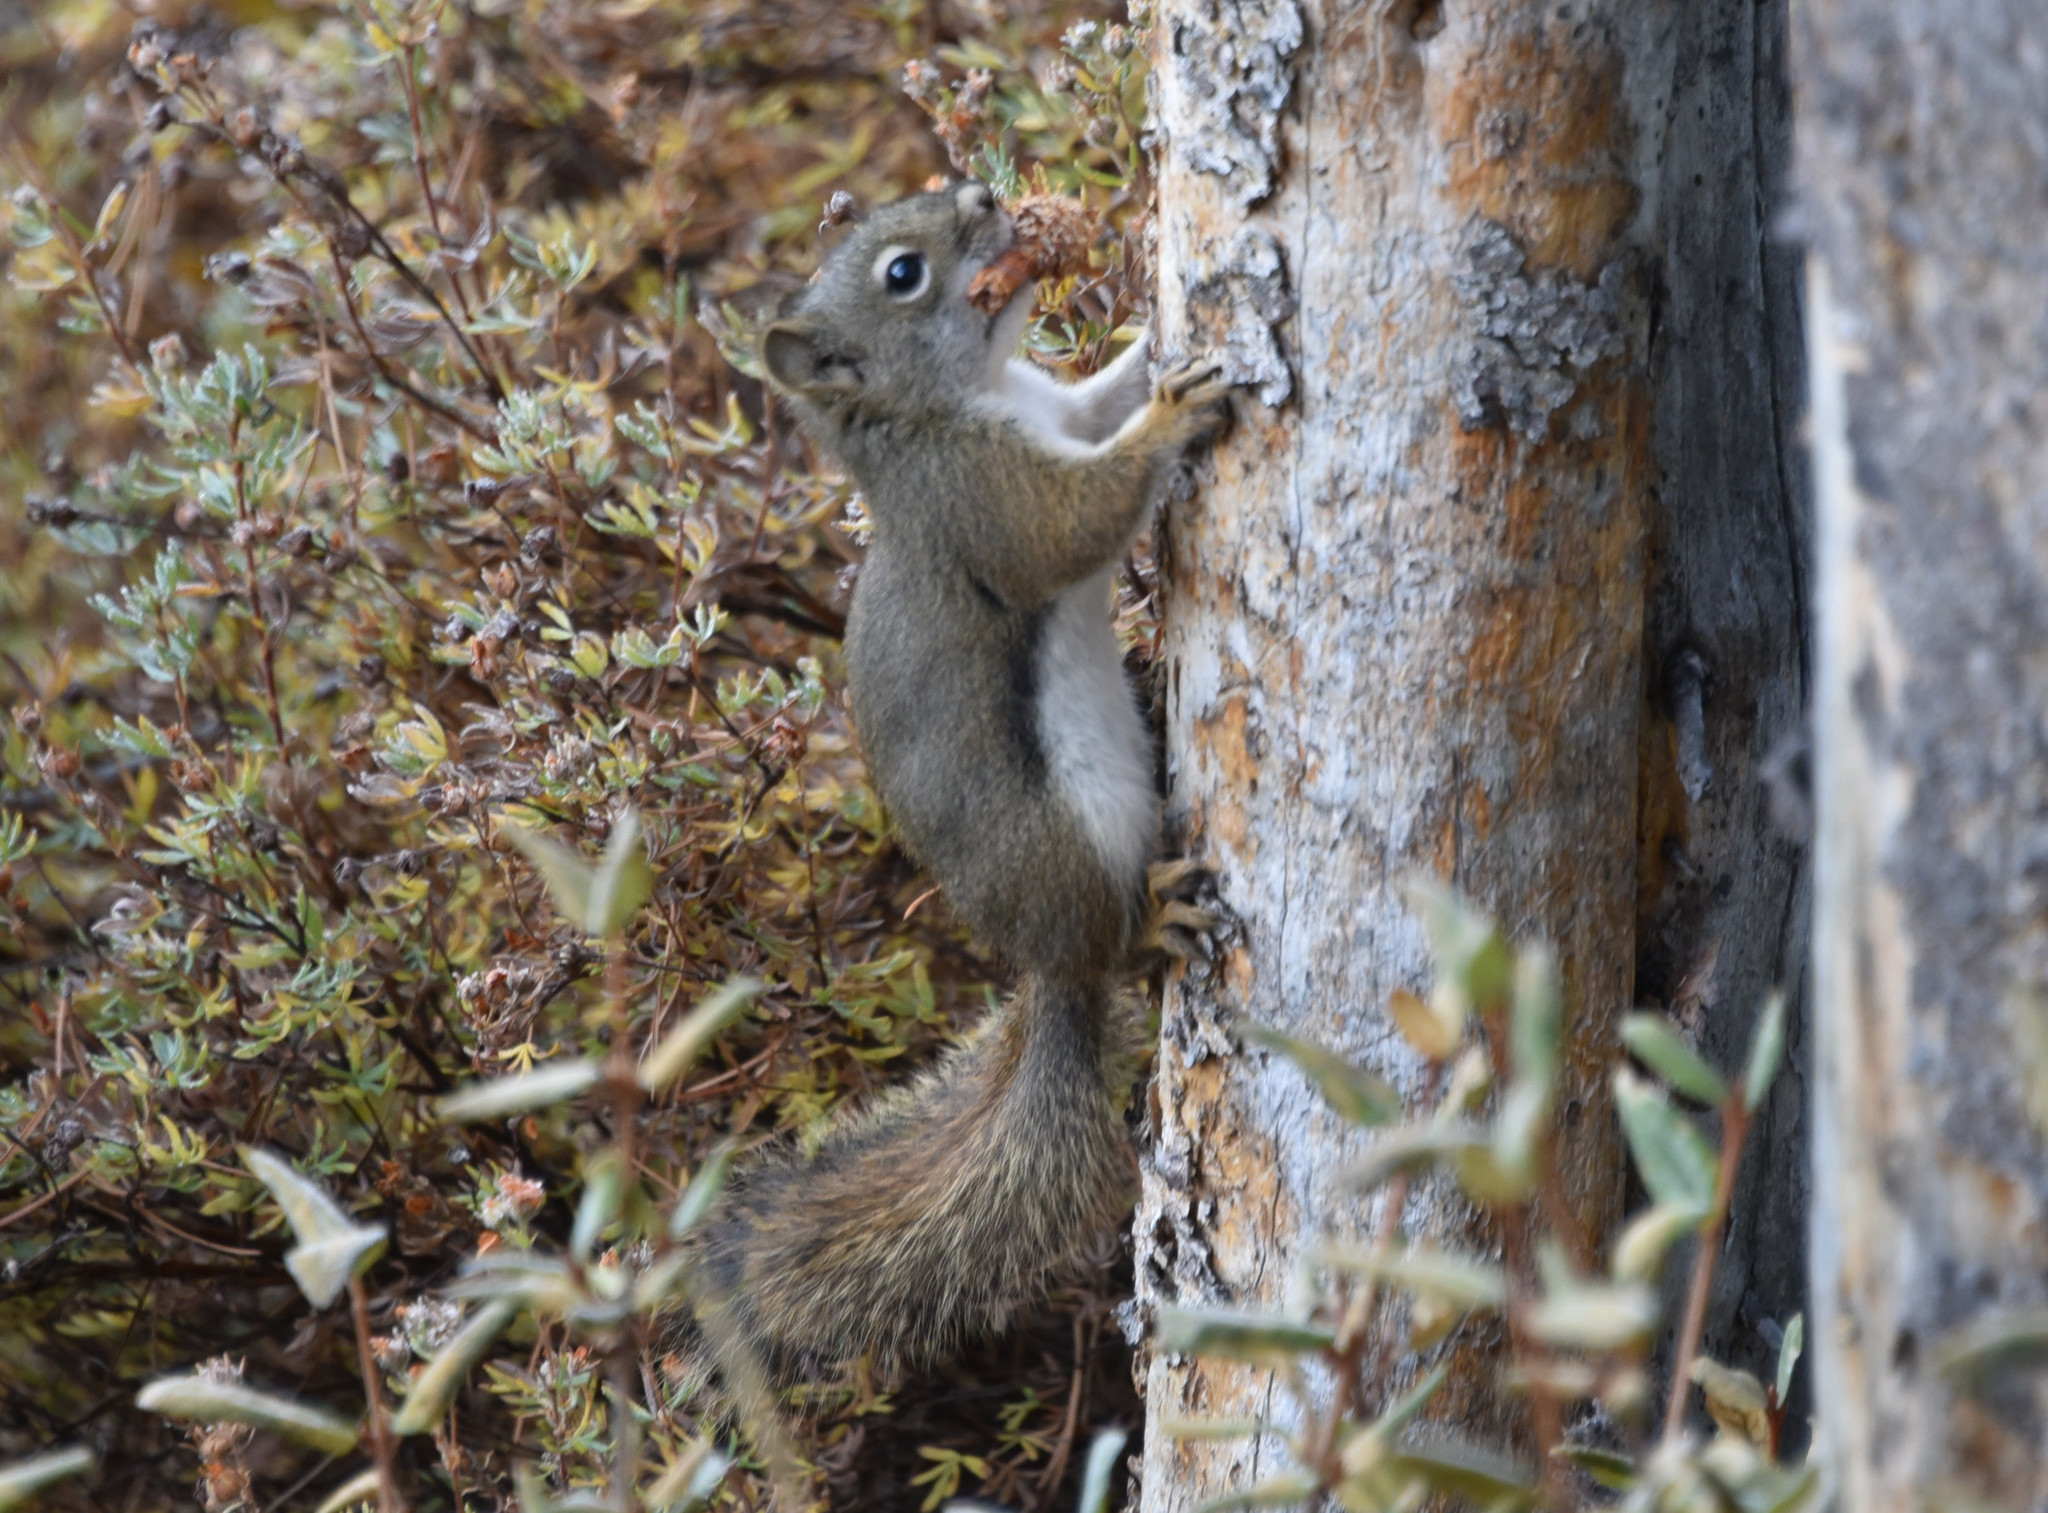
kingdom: Animalia
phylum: Chordata
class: Mammalia
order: Rodentia
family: Sciuridae
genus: Tamiasciurus
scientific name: Tamiasciurus hudsonicus
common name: Red squirrel
